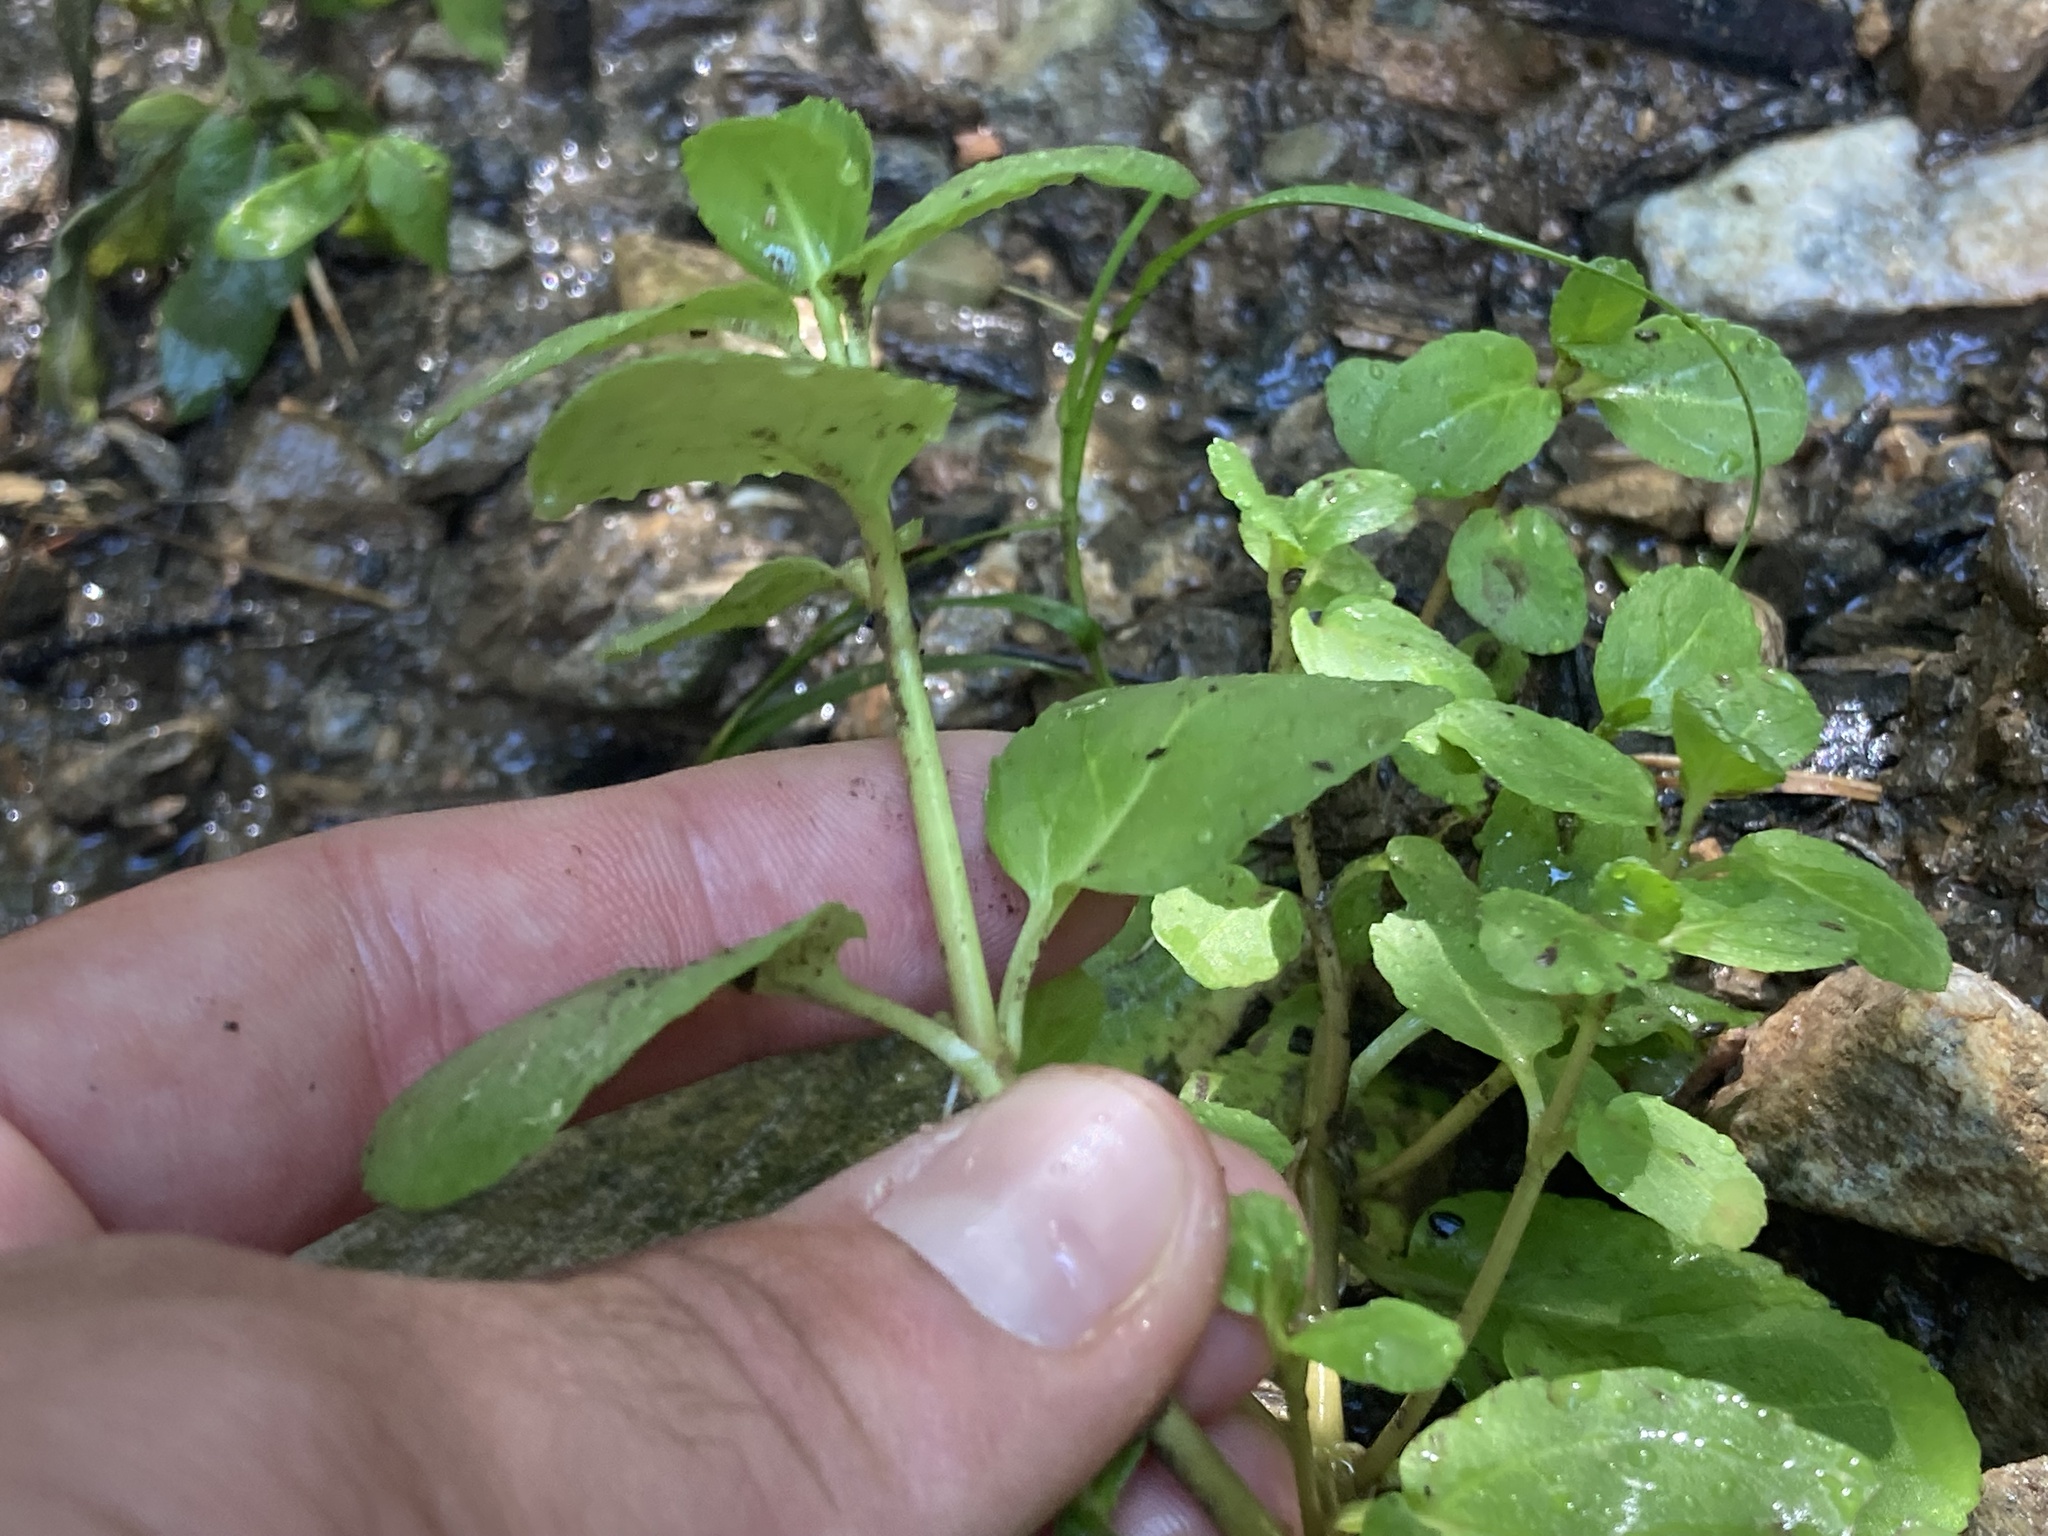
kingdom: Plantae
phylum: Tracheophyta
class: Magnoliopsida
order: Lamiales
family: Plantaginaceae
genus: Veronica
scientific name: Veronica beccabunga
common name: Brooklime
